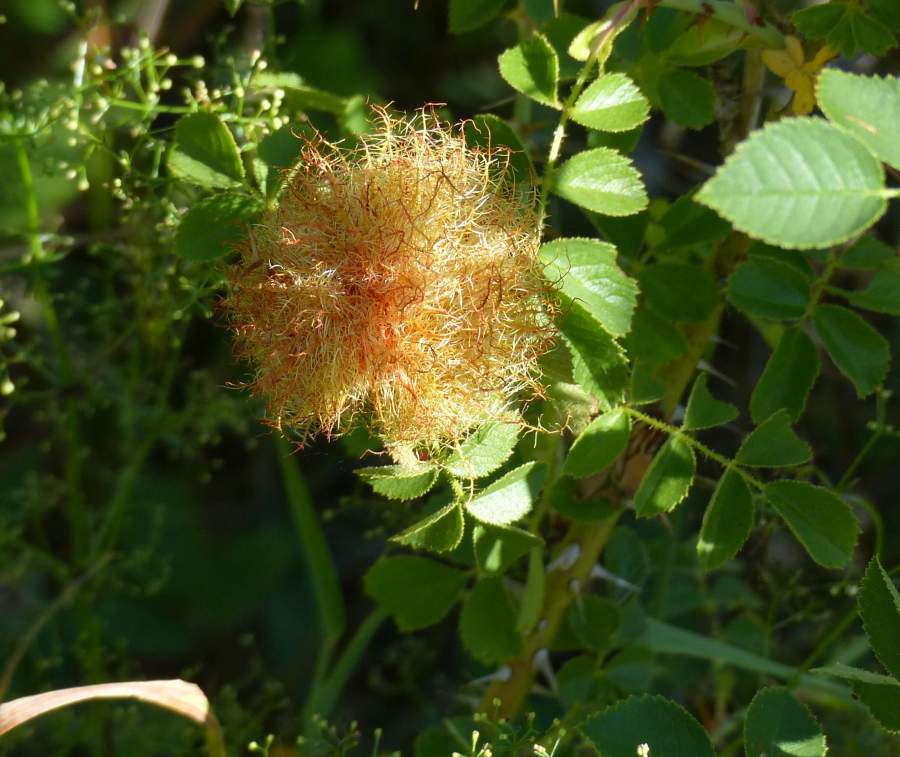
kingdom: Animalia
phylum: Arthropoda
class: Insecta
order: Hymenoptera
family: Cynipidae
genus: Diplolepis
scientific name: Diplolepis rosae
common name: Bedeguar gall
